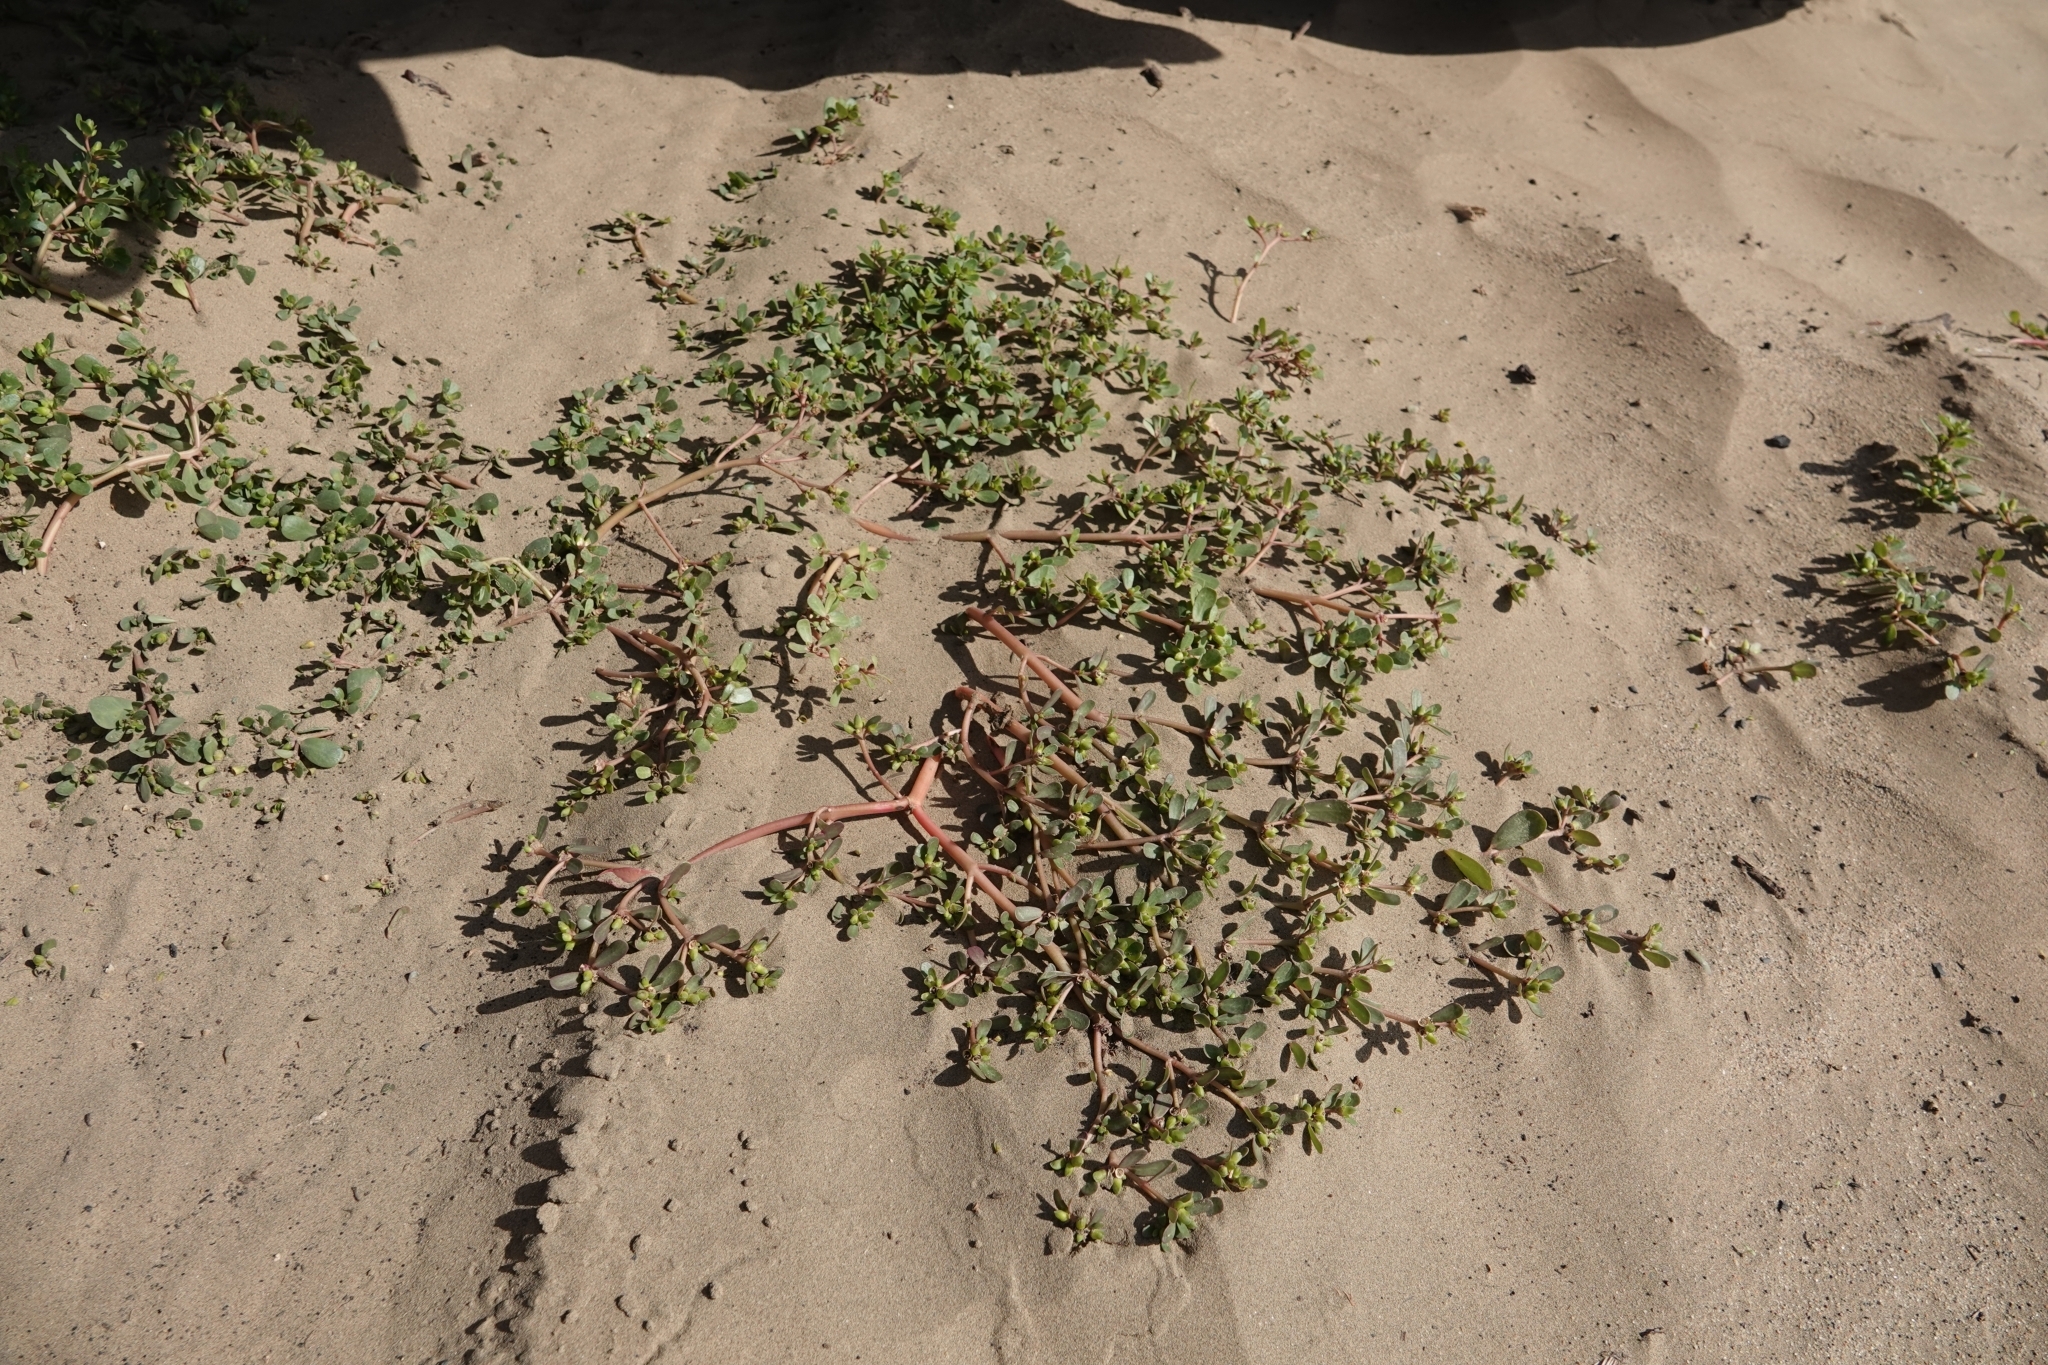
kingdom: Plantae
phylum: Tracheophyta
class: Magnoliopsida
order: Caryophyllales
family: Portulacaceae
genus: Portulaca
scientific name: Portulaca oleracea
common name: Common purslane
